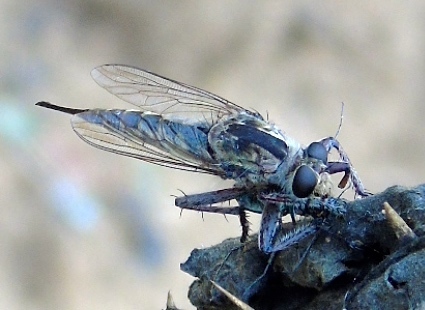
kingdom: Animalia
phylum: Arthropoda
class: Insecta
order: Diptera
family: Asilidae
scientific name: Asilidae
